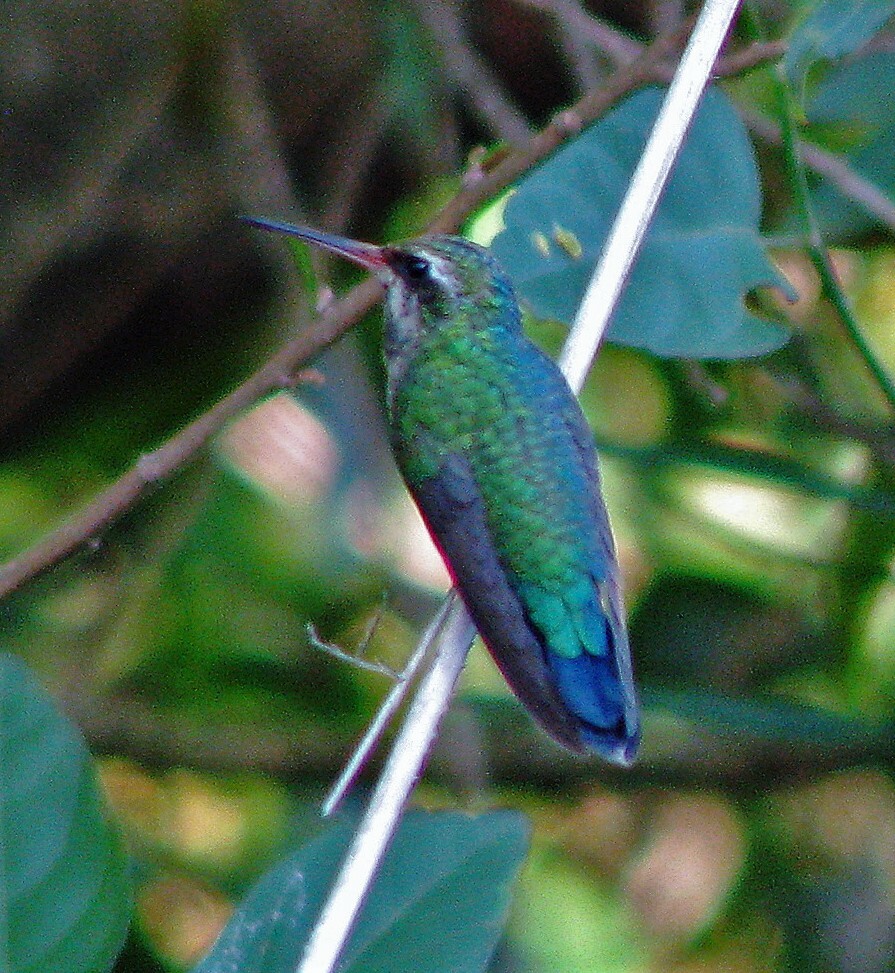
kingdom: Animalia
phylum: Chordata
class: Aves
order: Apodiformes
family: Trochilidae
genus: Chlorostilbon
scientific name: Chlorostilbon lucidus
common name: Glittering-bellied emerald
